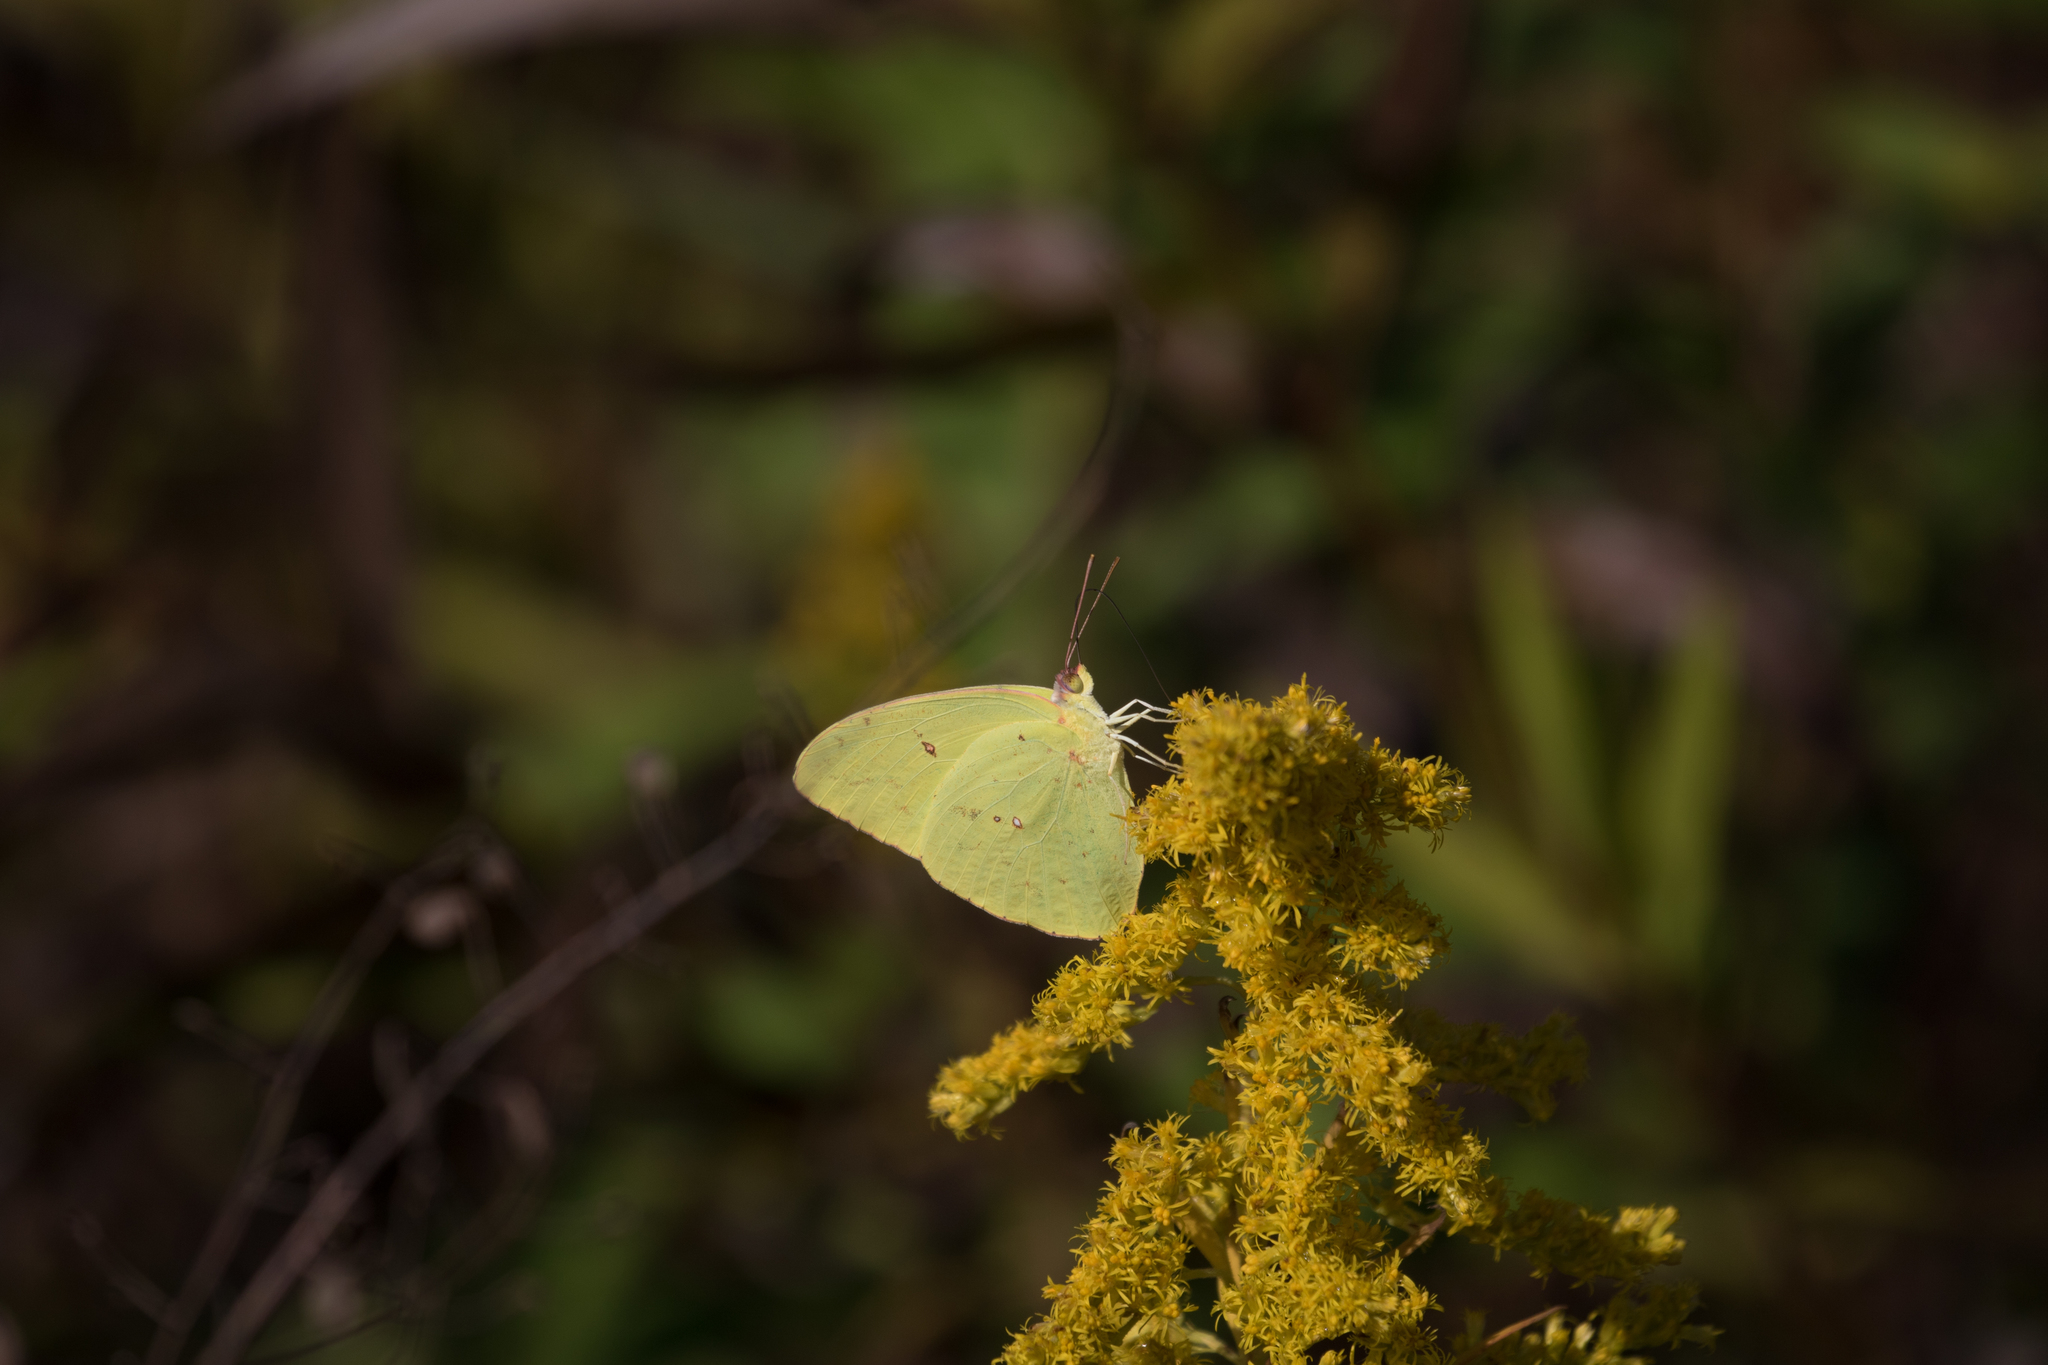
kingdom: Animalia
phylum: Arthropoda
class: Insecta
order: Lepidoptera
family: Pieridae
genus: Phoebis
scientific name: Phoebis sennae
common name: Cloudless sulphur
